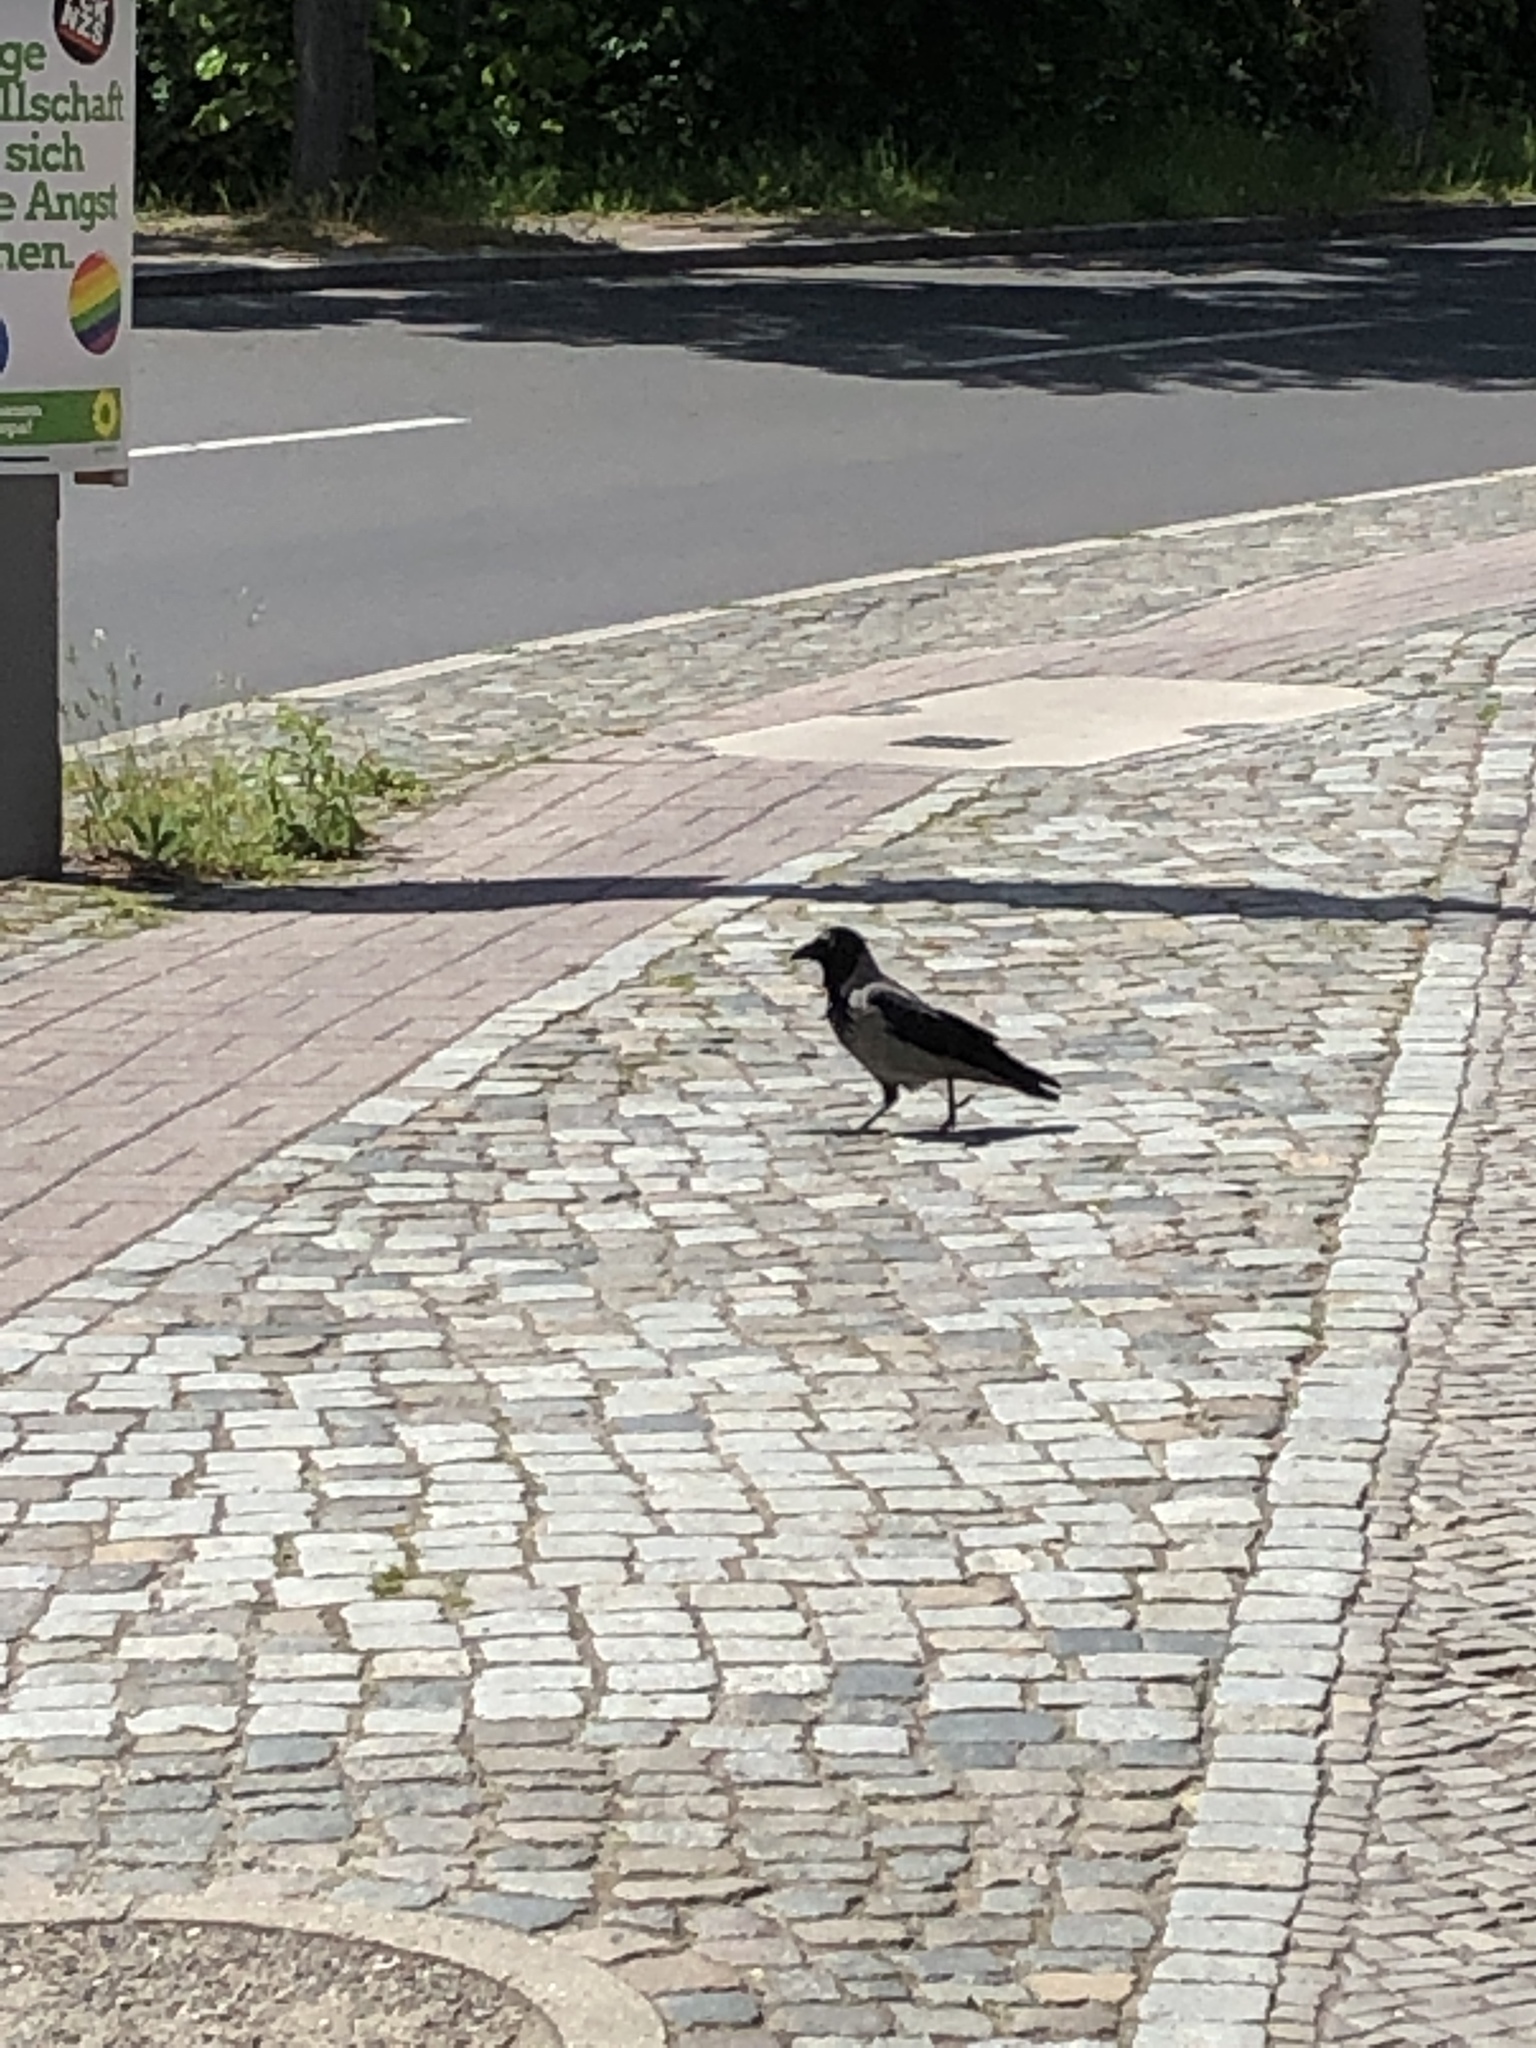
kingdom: Animalia
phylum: Chordata
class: Aves
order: Passeriformes
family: Corvidae
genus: Corvus
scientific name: Corvus cornix
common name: Hooded crow
